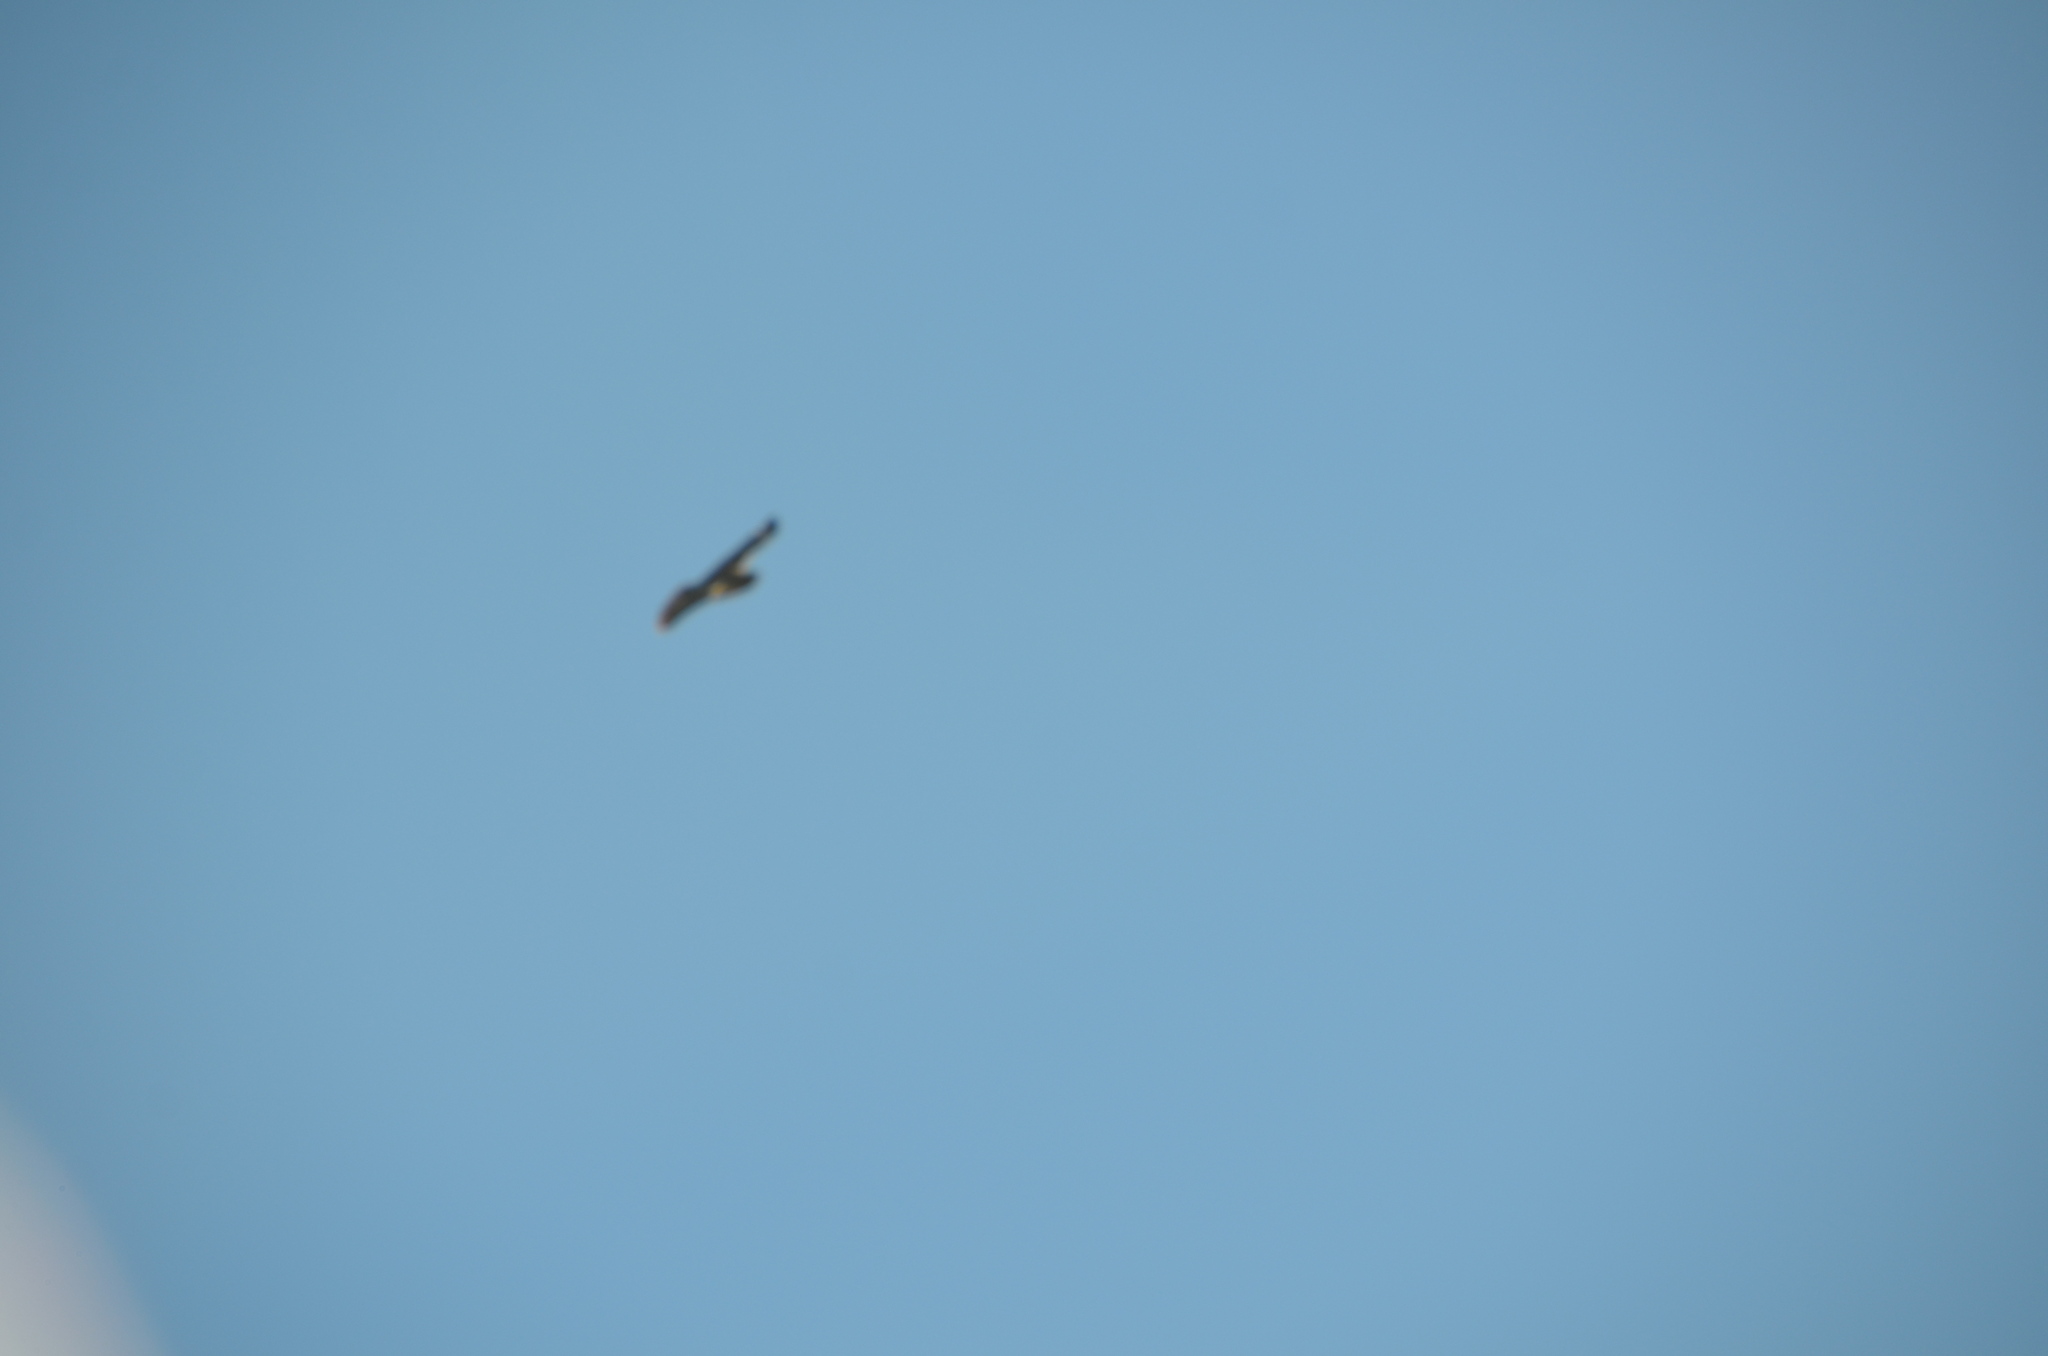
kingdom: Animalia
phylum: Chordata
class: Aves
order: Accipitriformes
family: Accipitridae
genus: Buteo
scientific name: Buteo jamaicensis
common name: Red-tailed hawk
